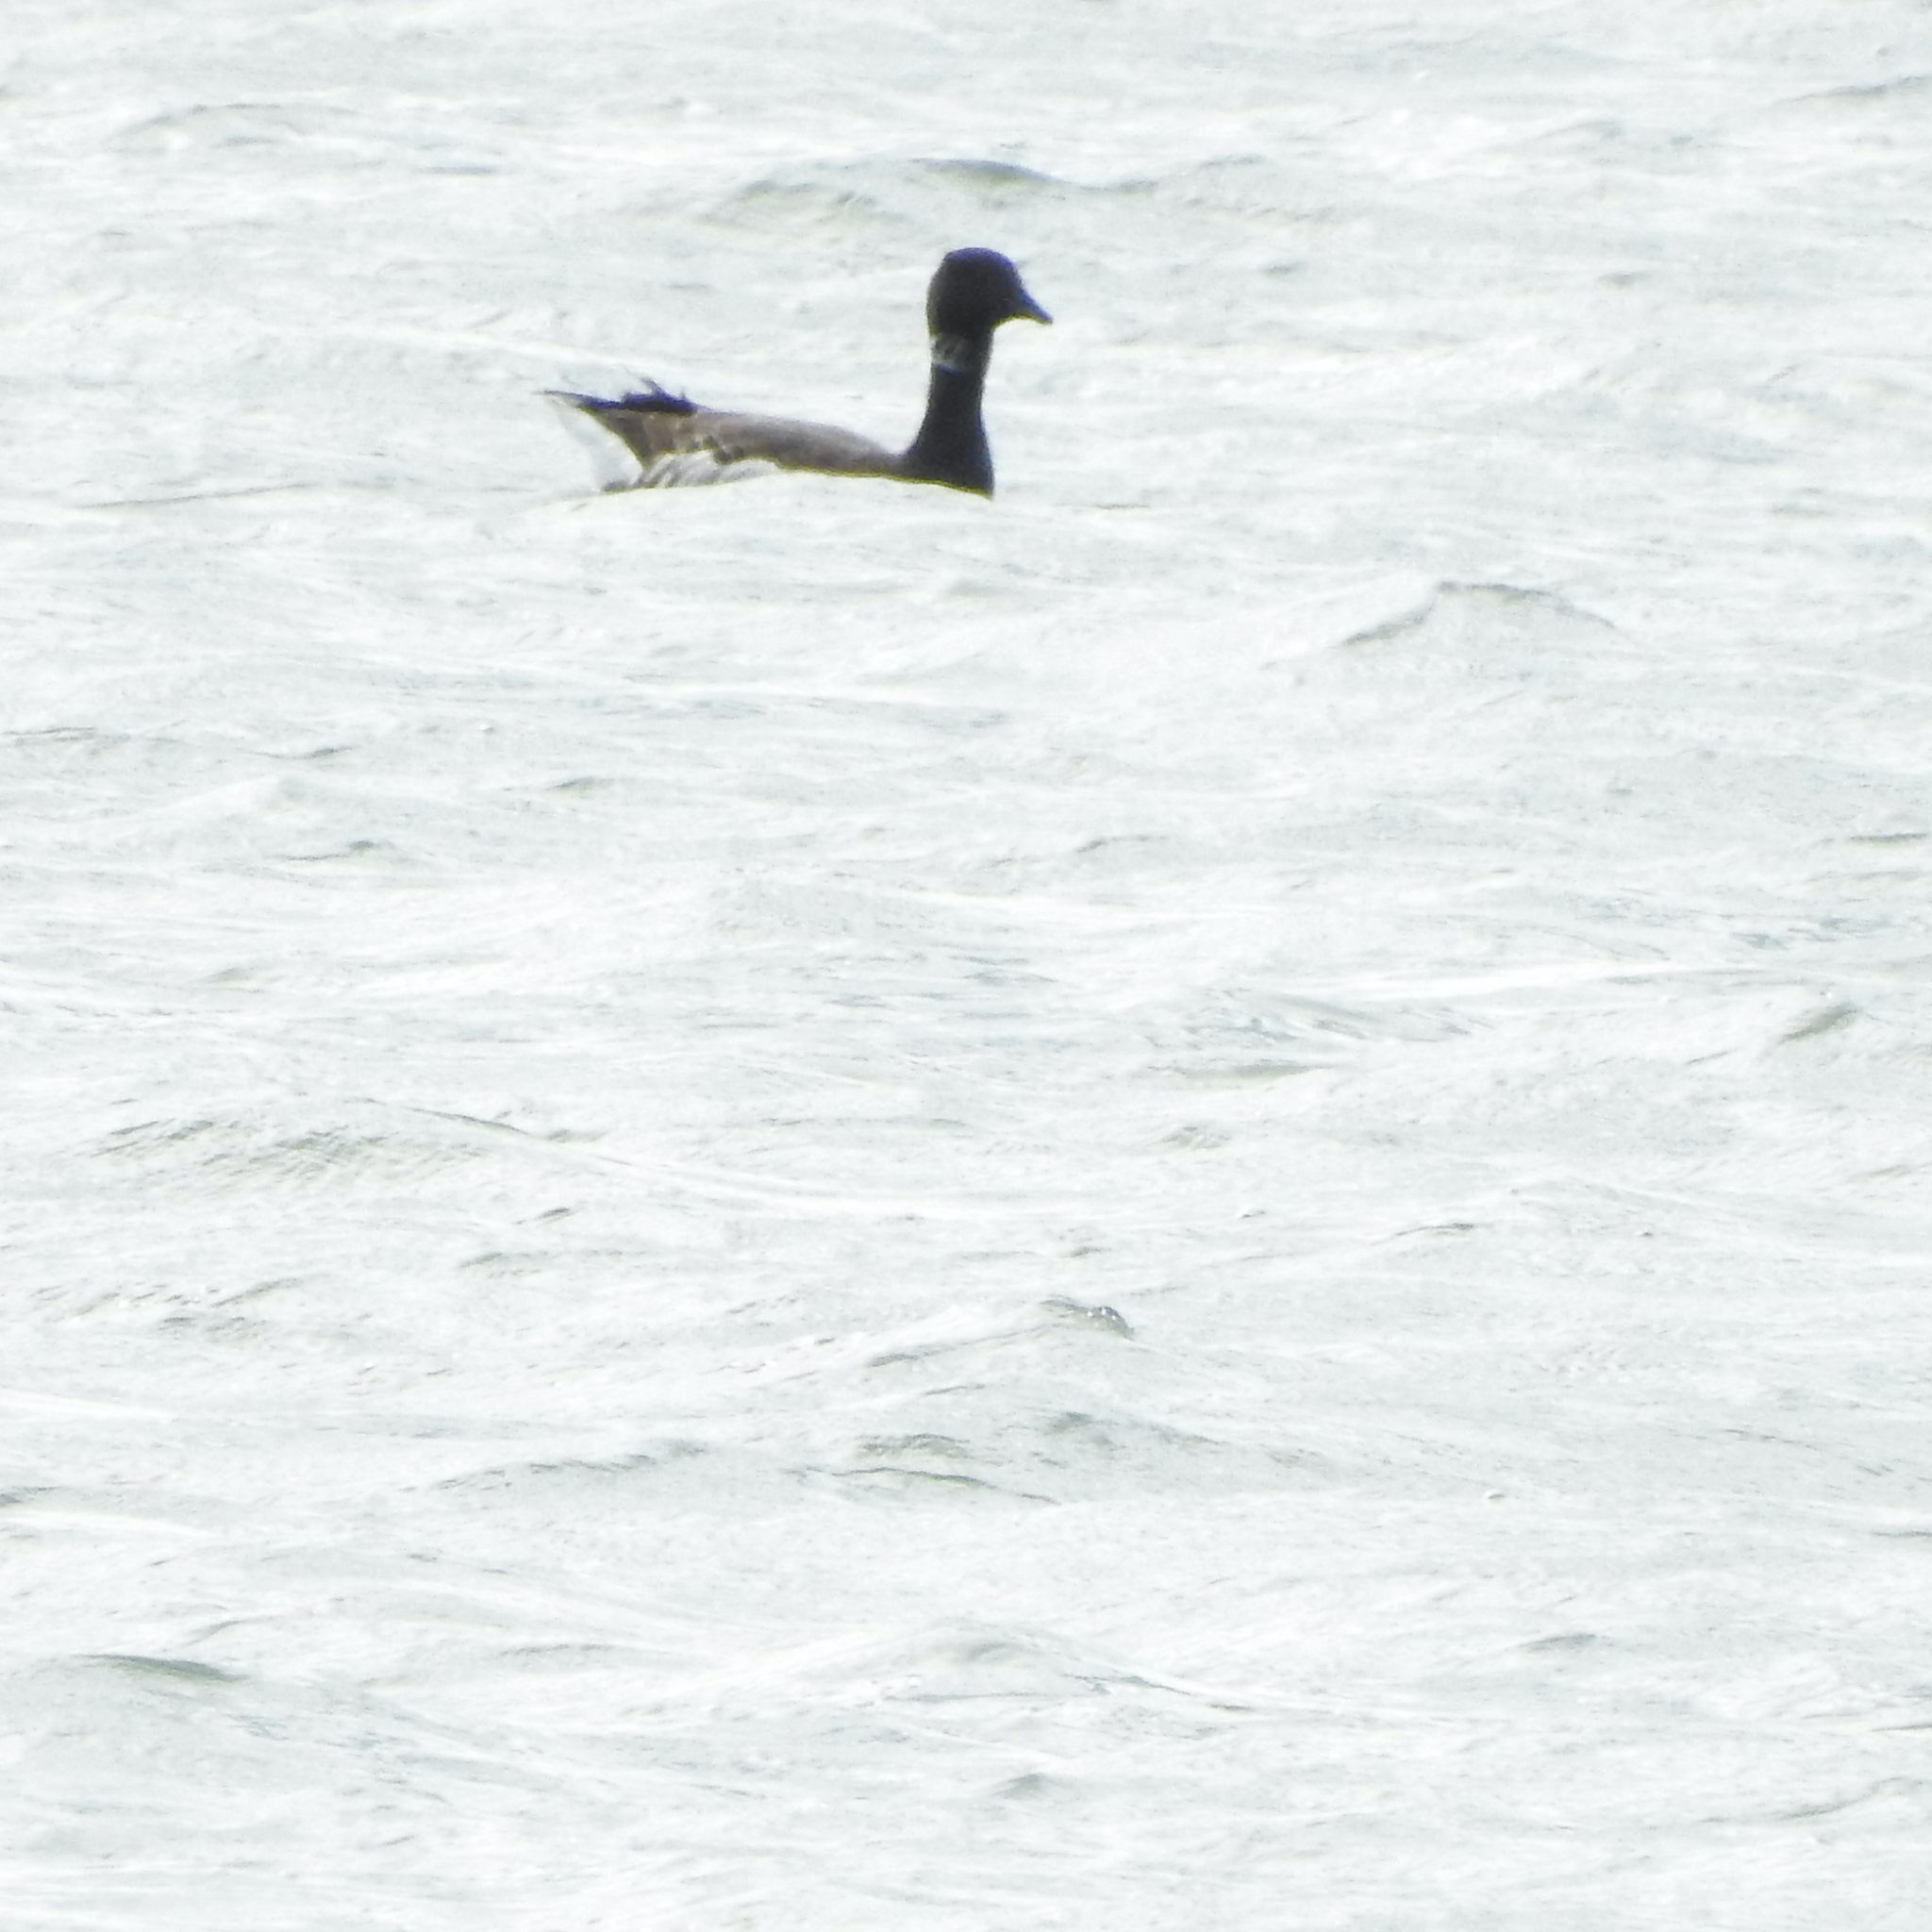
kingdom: Animalia
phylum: Chordata
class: Aves
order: Anseriformes
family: Anatidae
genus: Branta
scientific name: Branta bernicla
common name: Brant goose
